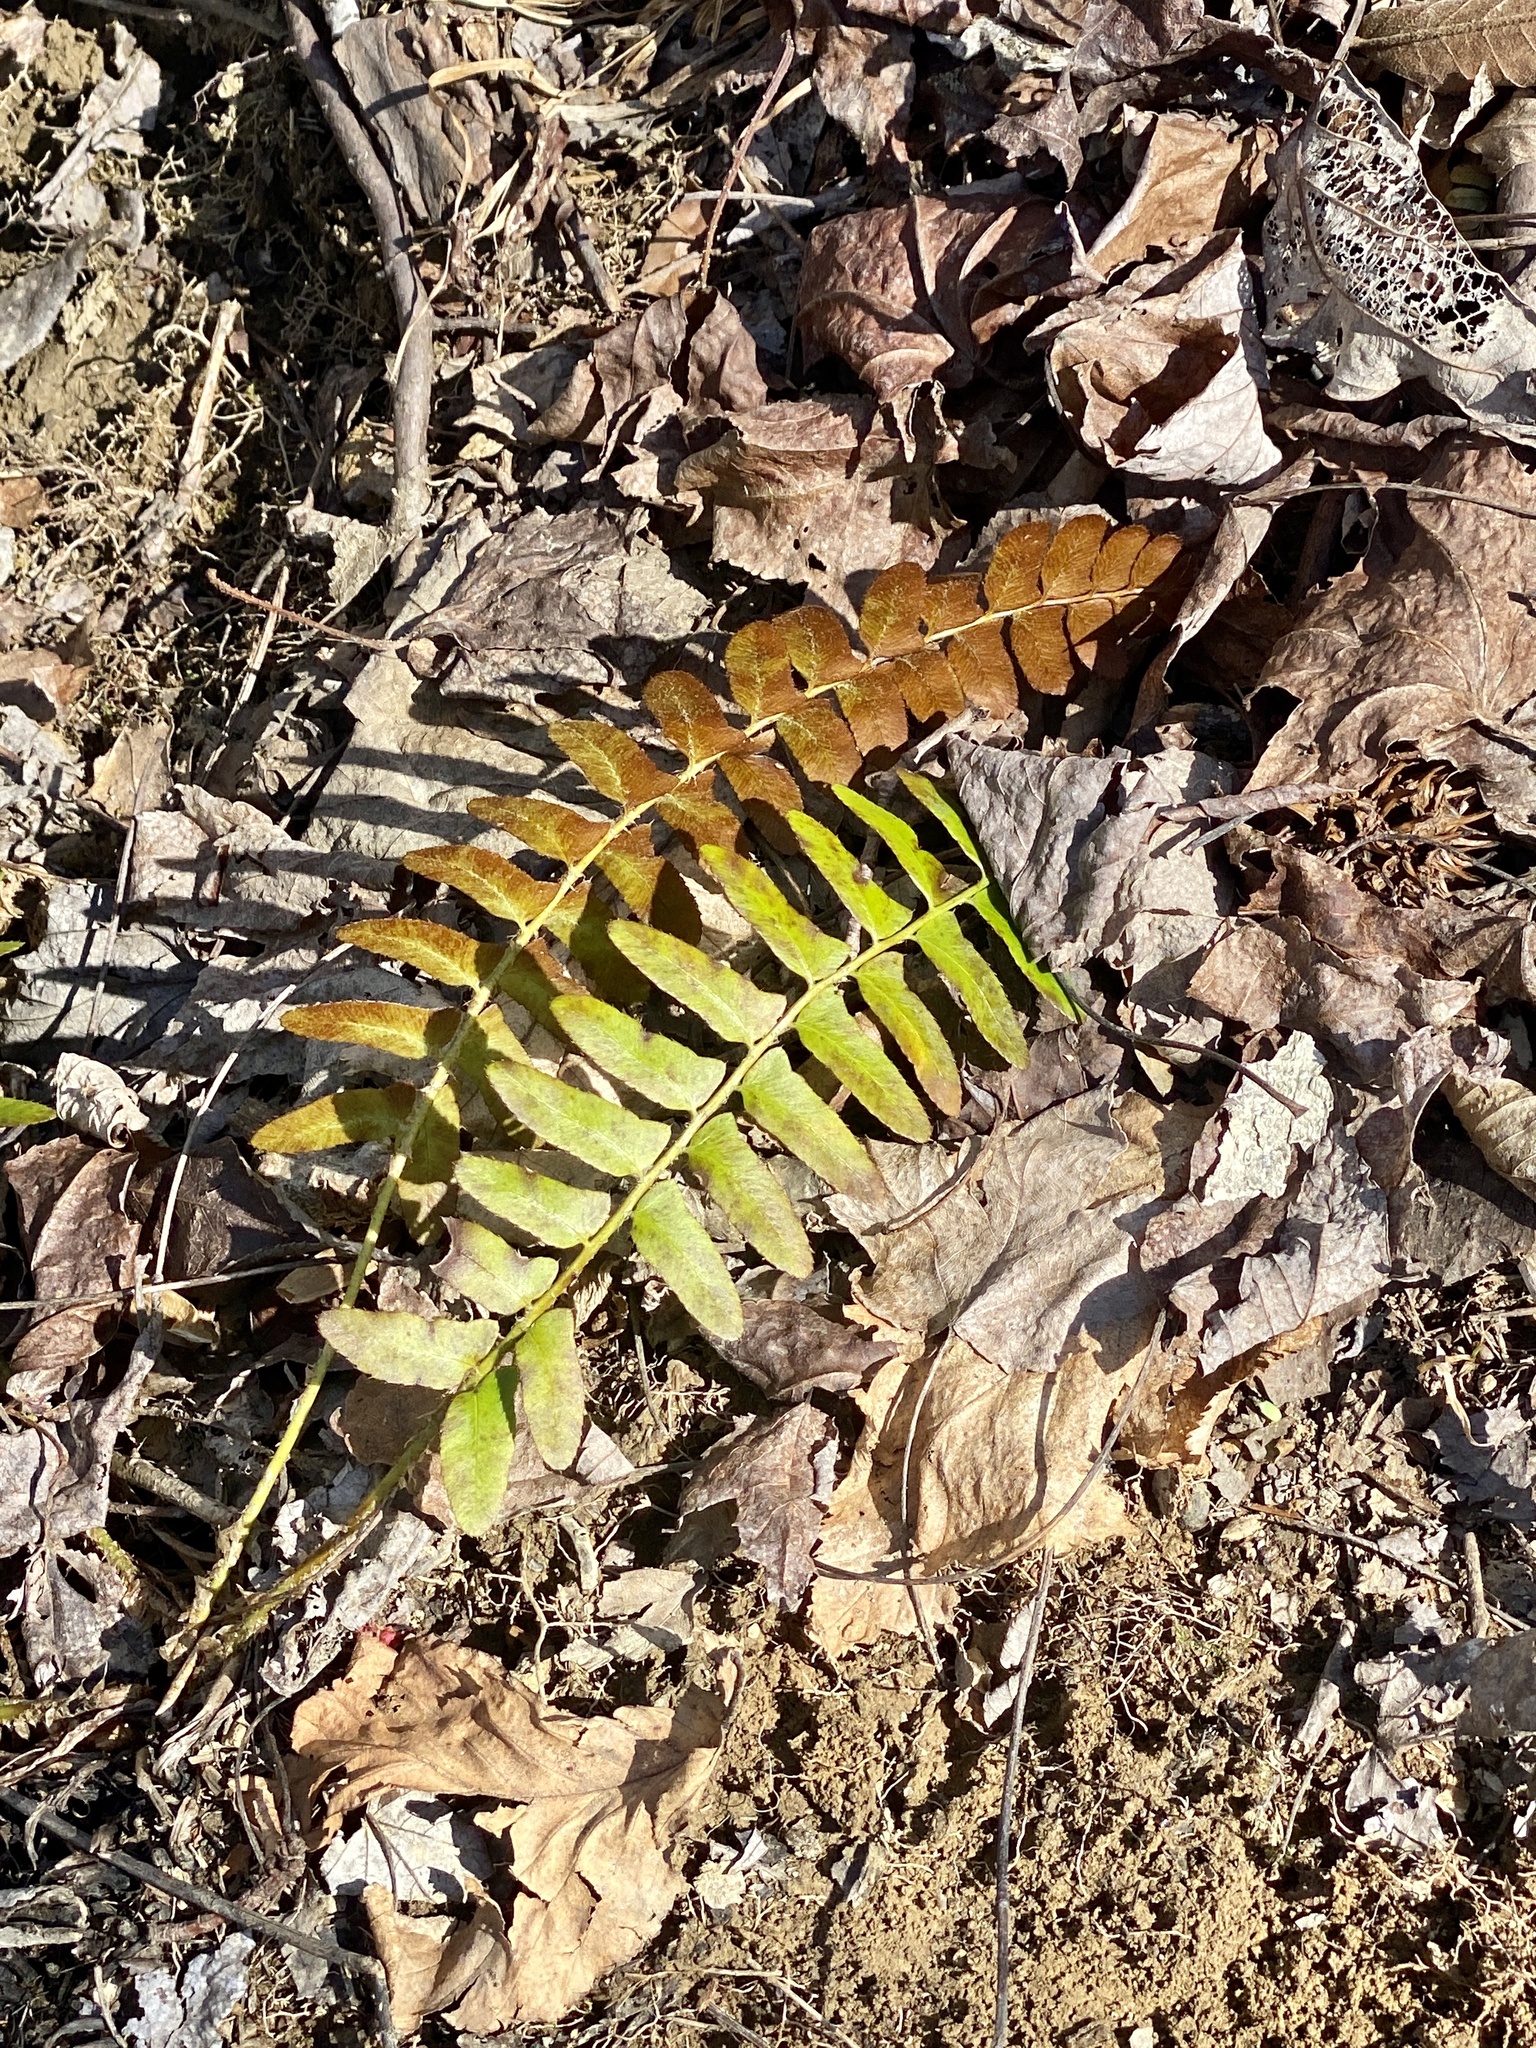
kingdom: Plantae
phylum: Tracheophyta
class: Polypodiopsida
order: Polypodiales
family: Dryopteridaceae
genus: Polystichum
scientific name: Polystichum acrostichoides
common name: Christmas fern
